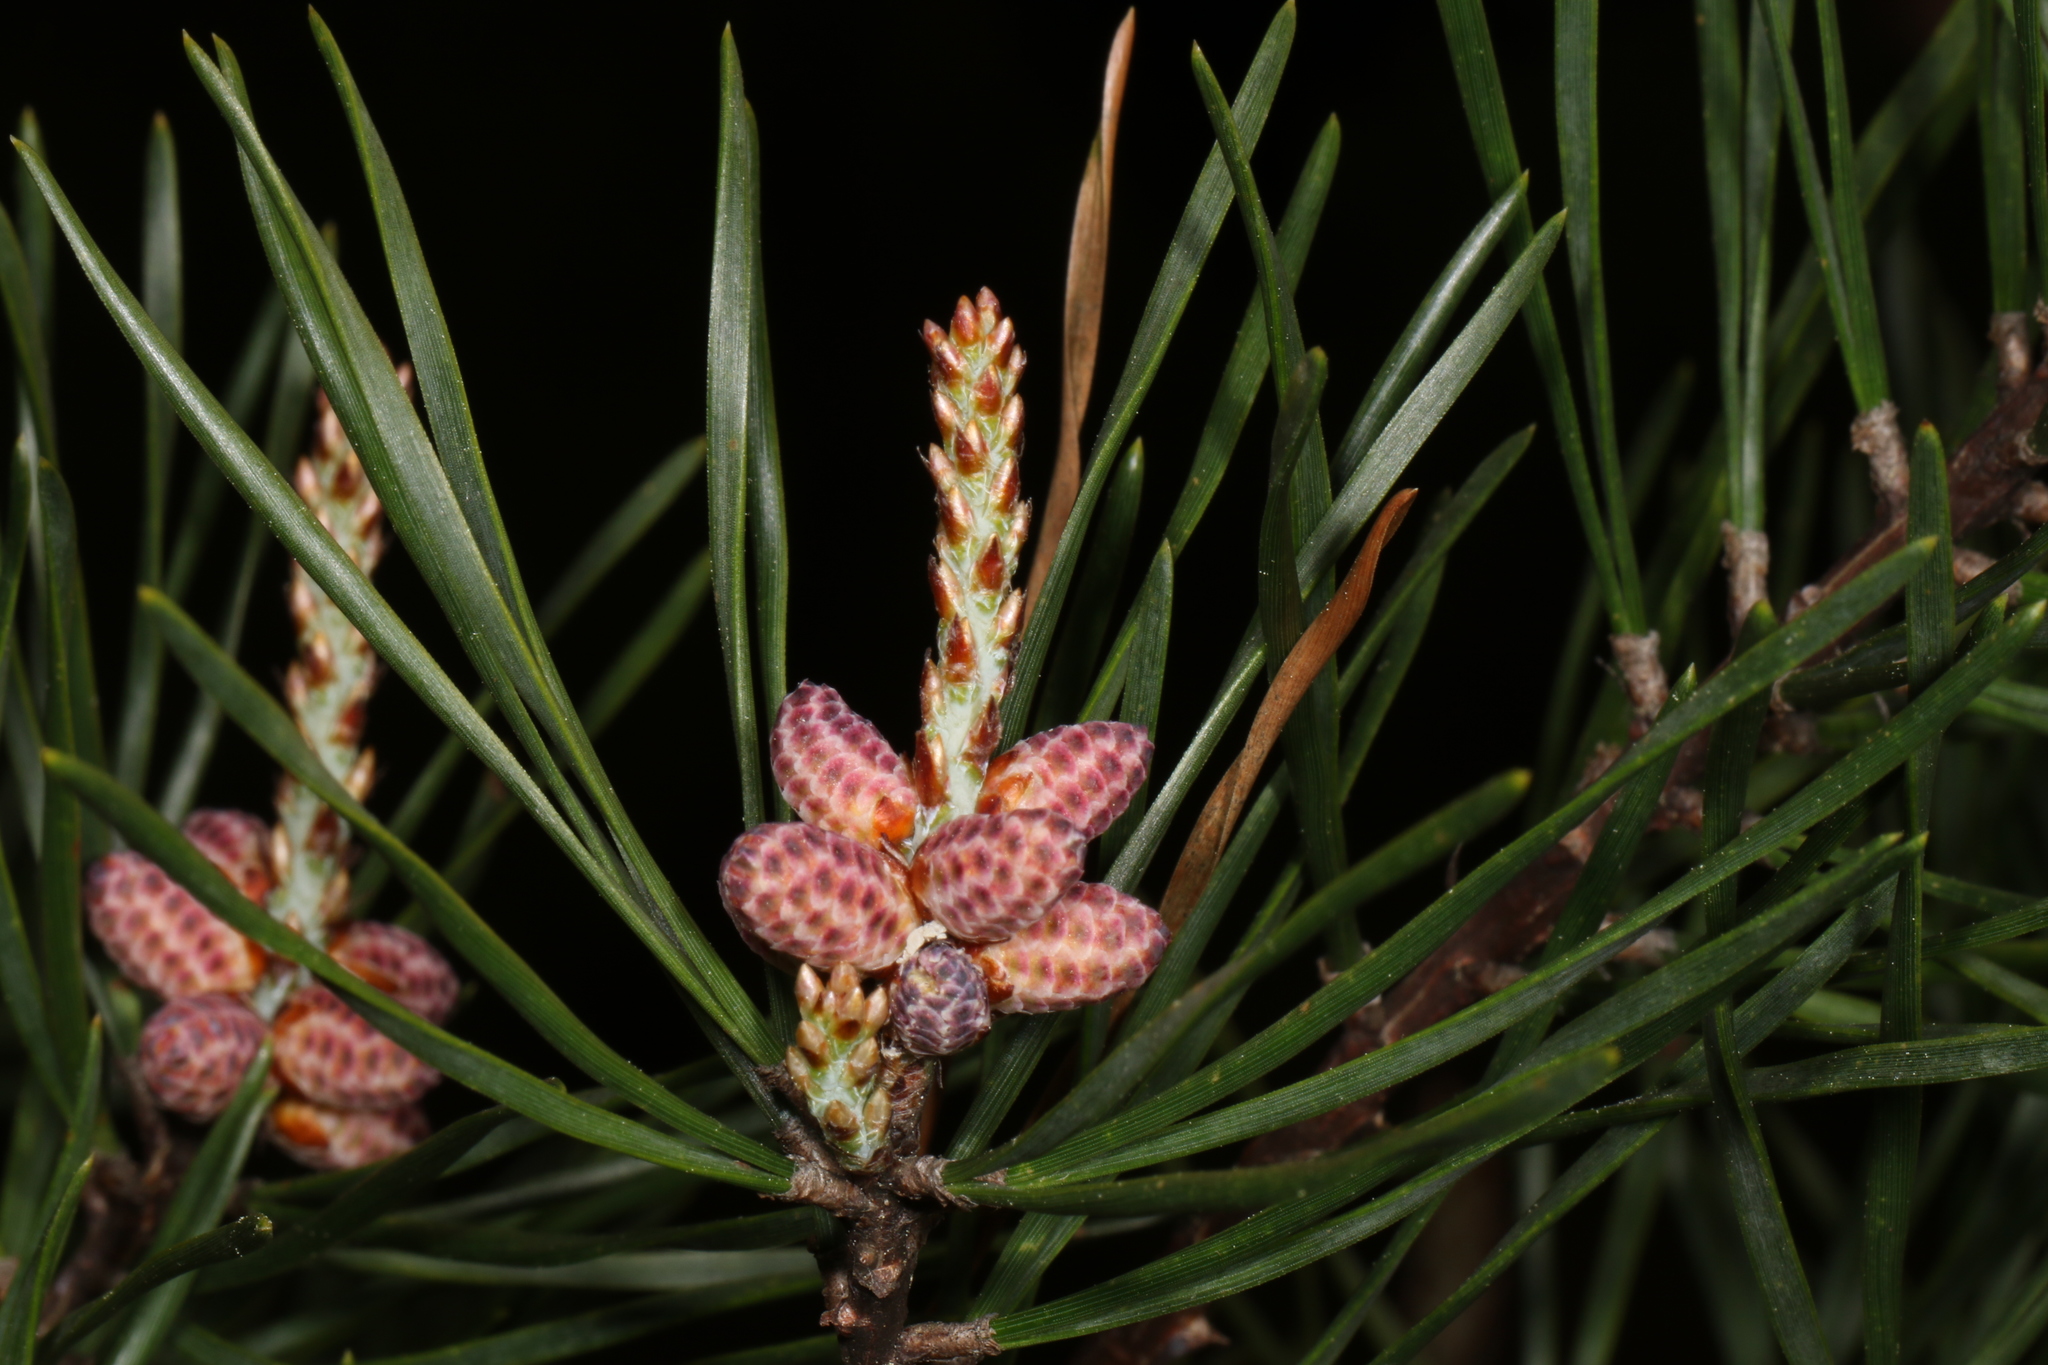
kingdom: Plantae
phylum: Tracheophyta
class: Pinopsida
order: Pinales
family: Pinaceae
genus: Pinus
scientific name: Pinus virginiana
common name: Scrub pine
